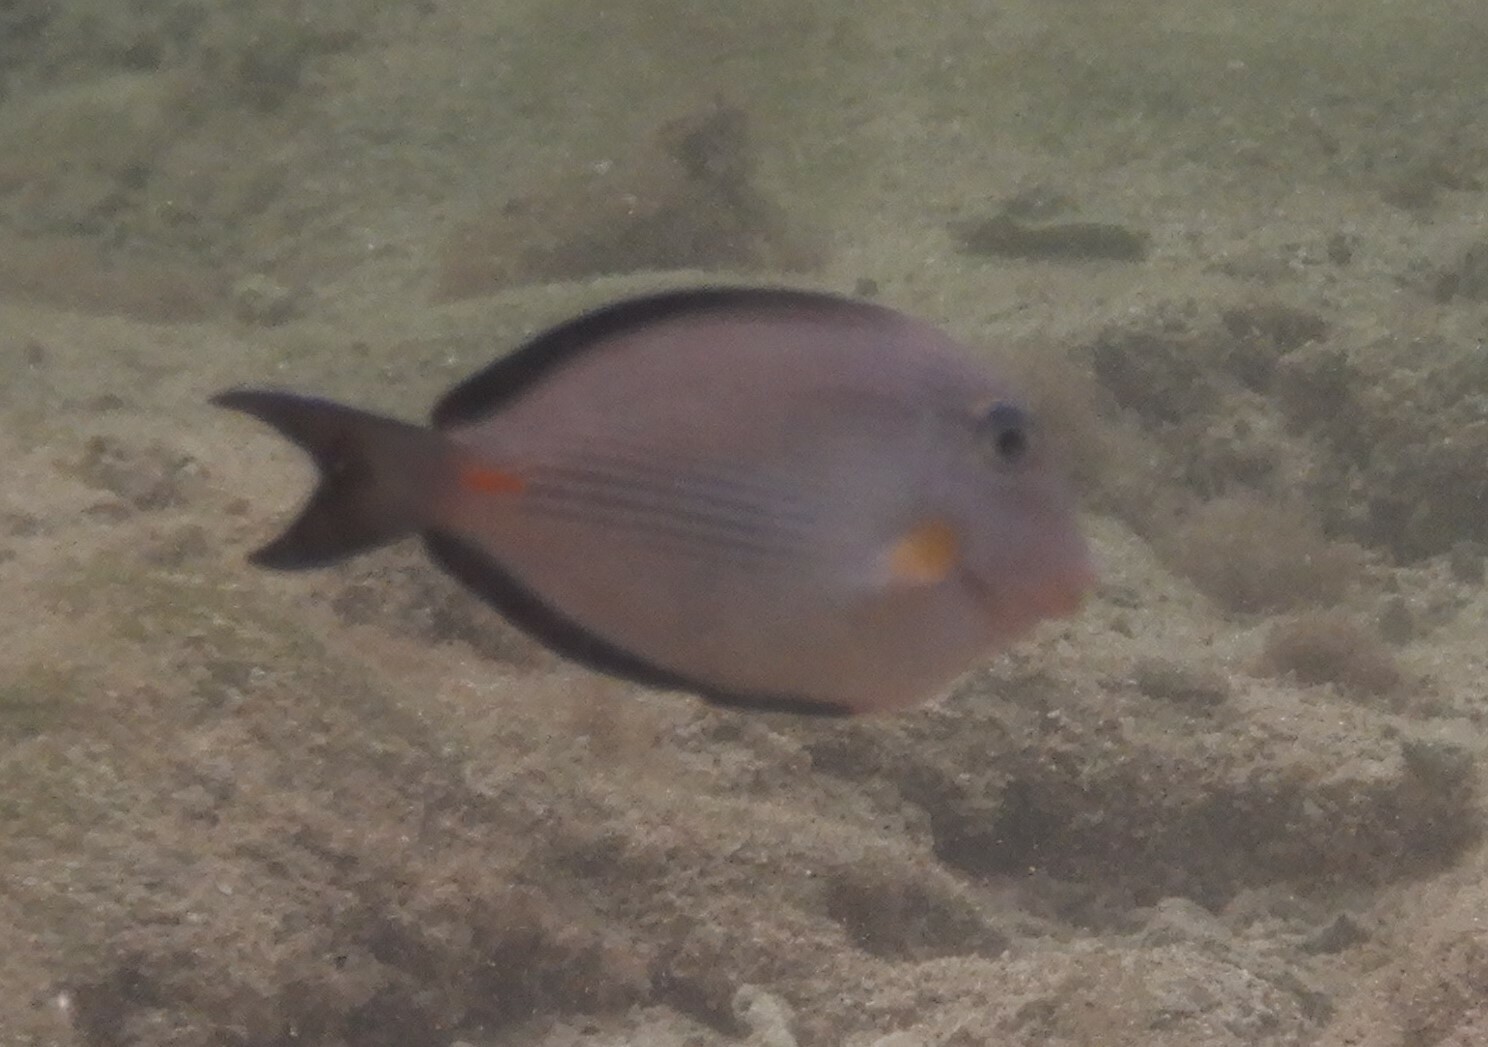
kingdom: Animalia
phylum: Chordata
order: Perciformes
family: Acanthuridae
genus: Acanthurus
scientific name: Acanthurus sohal
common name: Red sea surgeonfish
